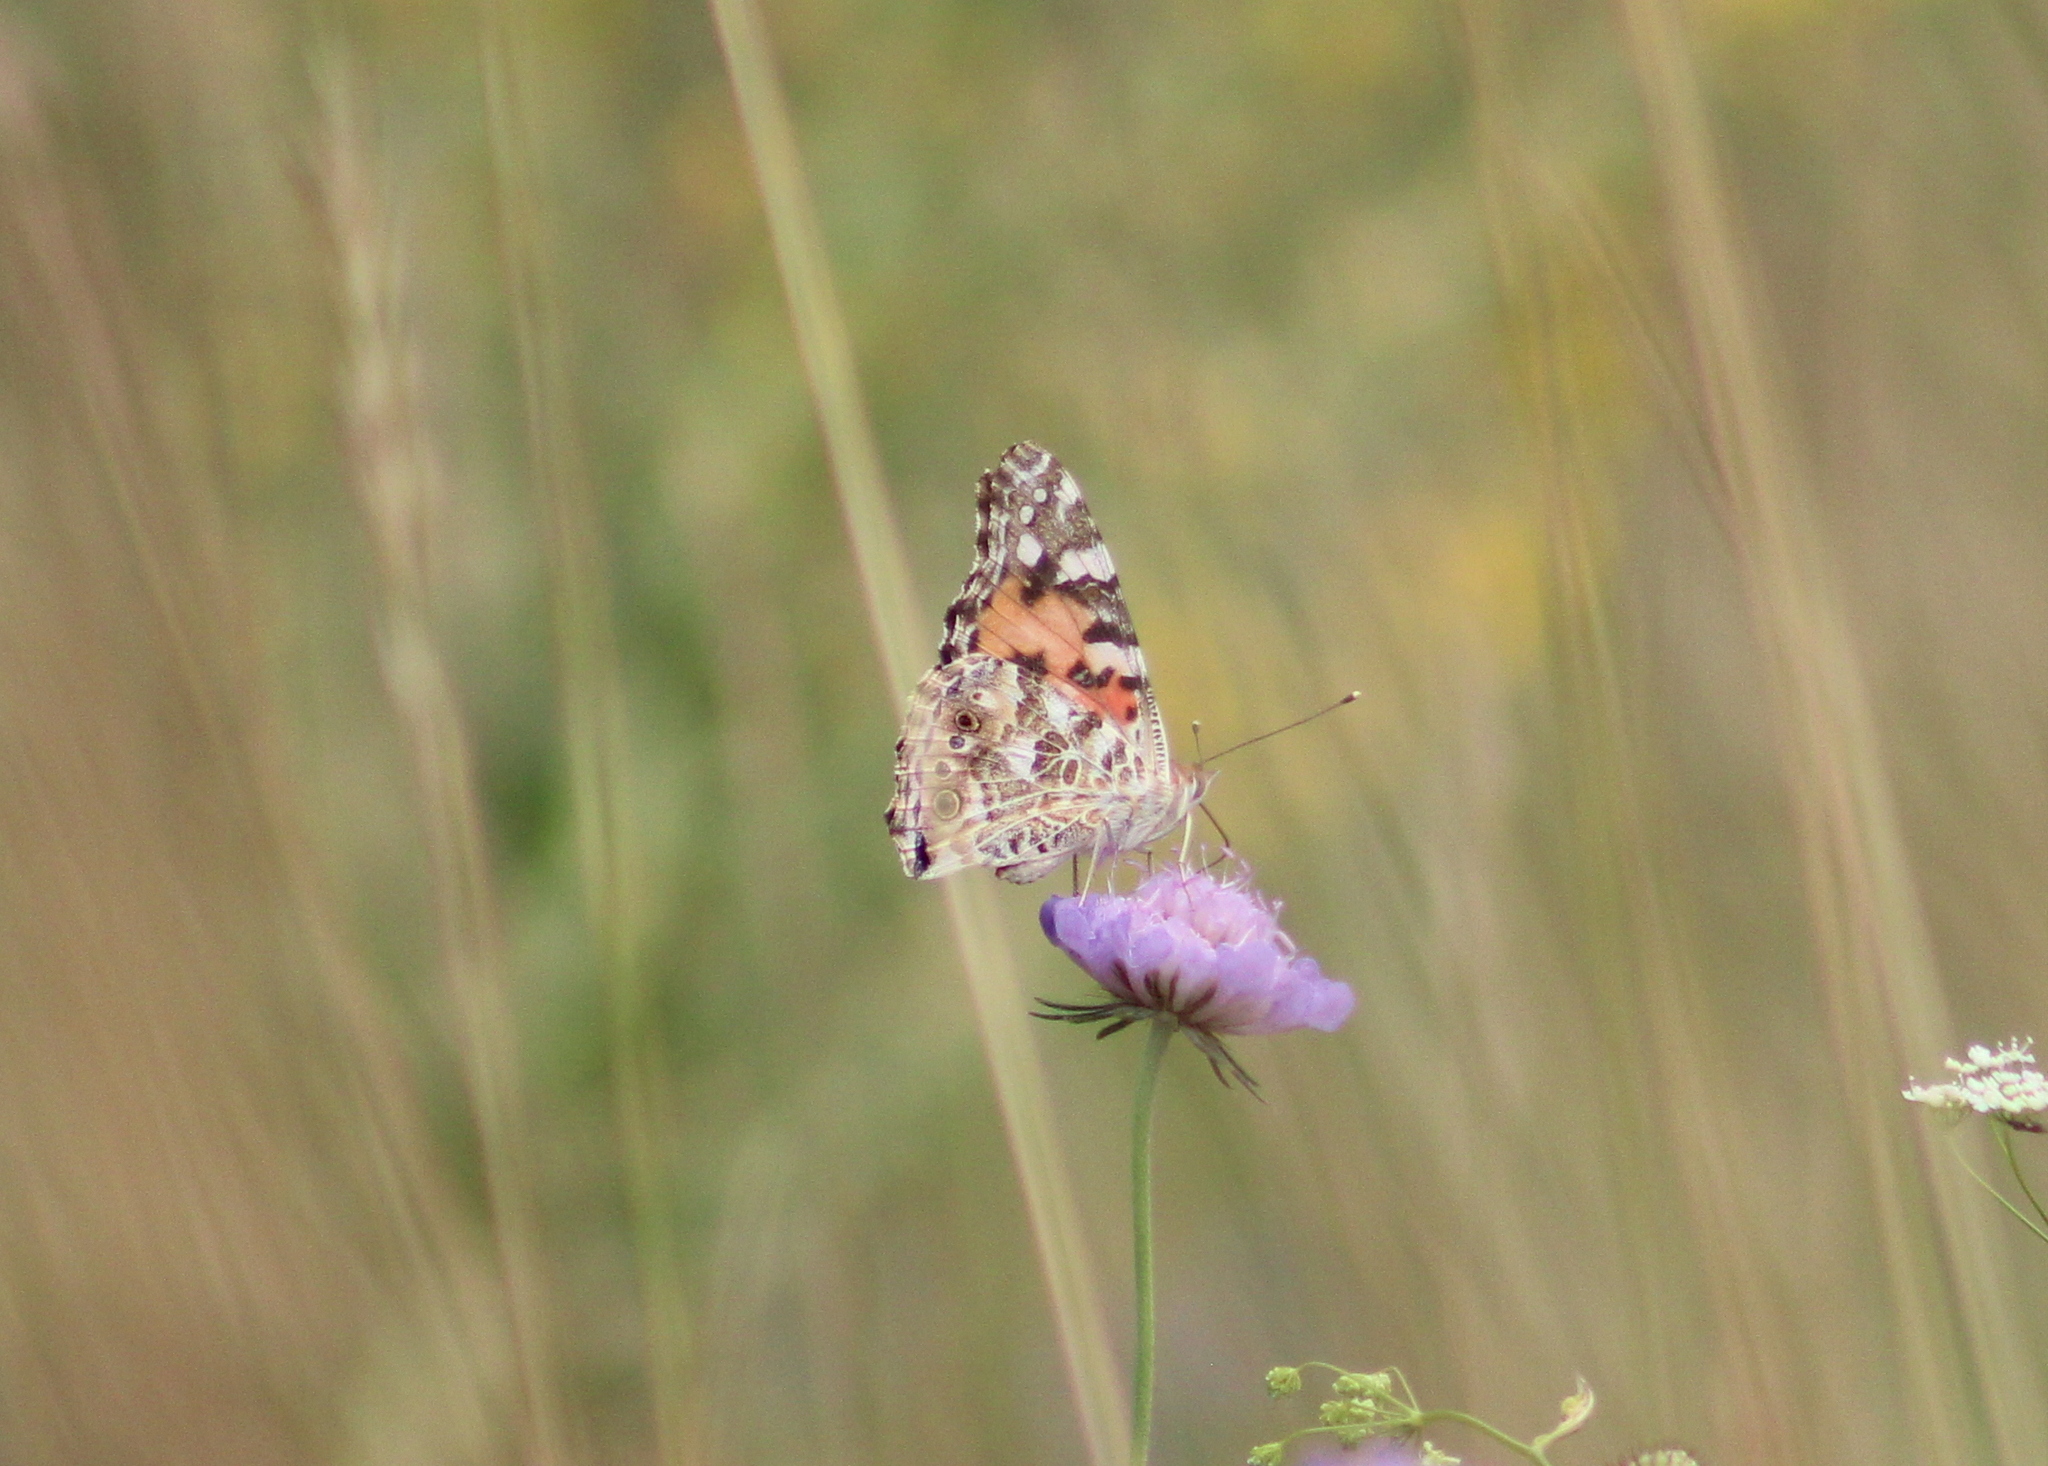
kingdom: Animalia
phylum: Arthropoda
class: Insecta
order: Lepidoptera
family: Nymphalidae
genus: Vanessa
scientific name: Vanessa cardui
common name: Painted lady
